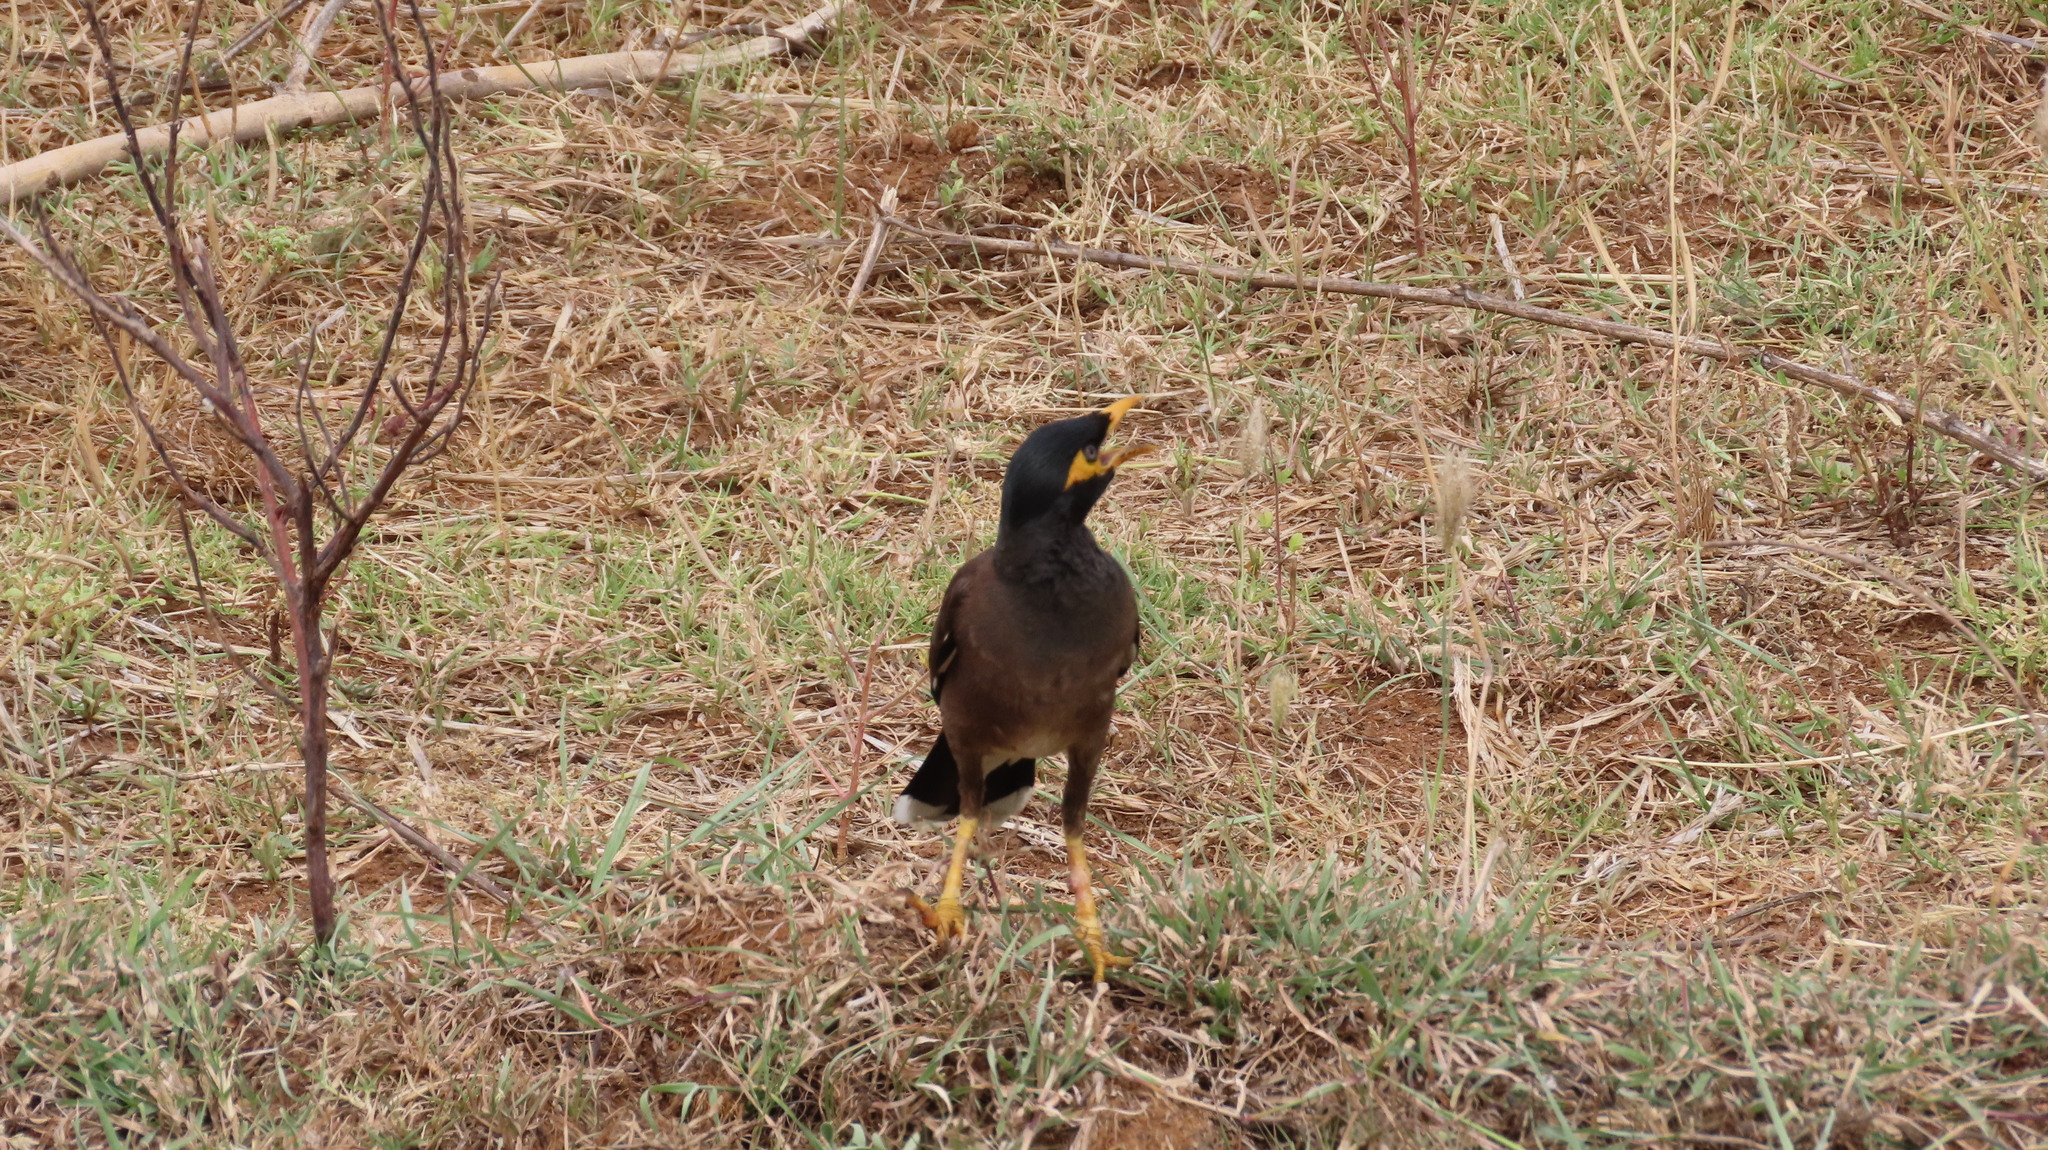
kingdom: Animalia
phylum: Chordata
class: Aves
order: Passeriformes
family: Sturnidae
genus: Acridotheres
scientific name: Acridotheres tristis
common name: Common myna
